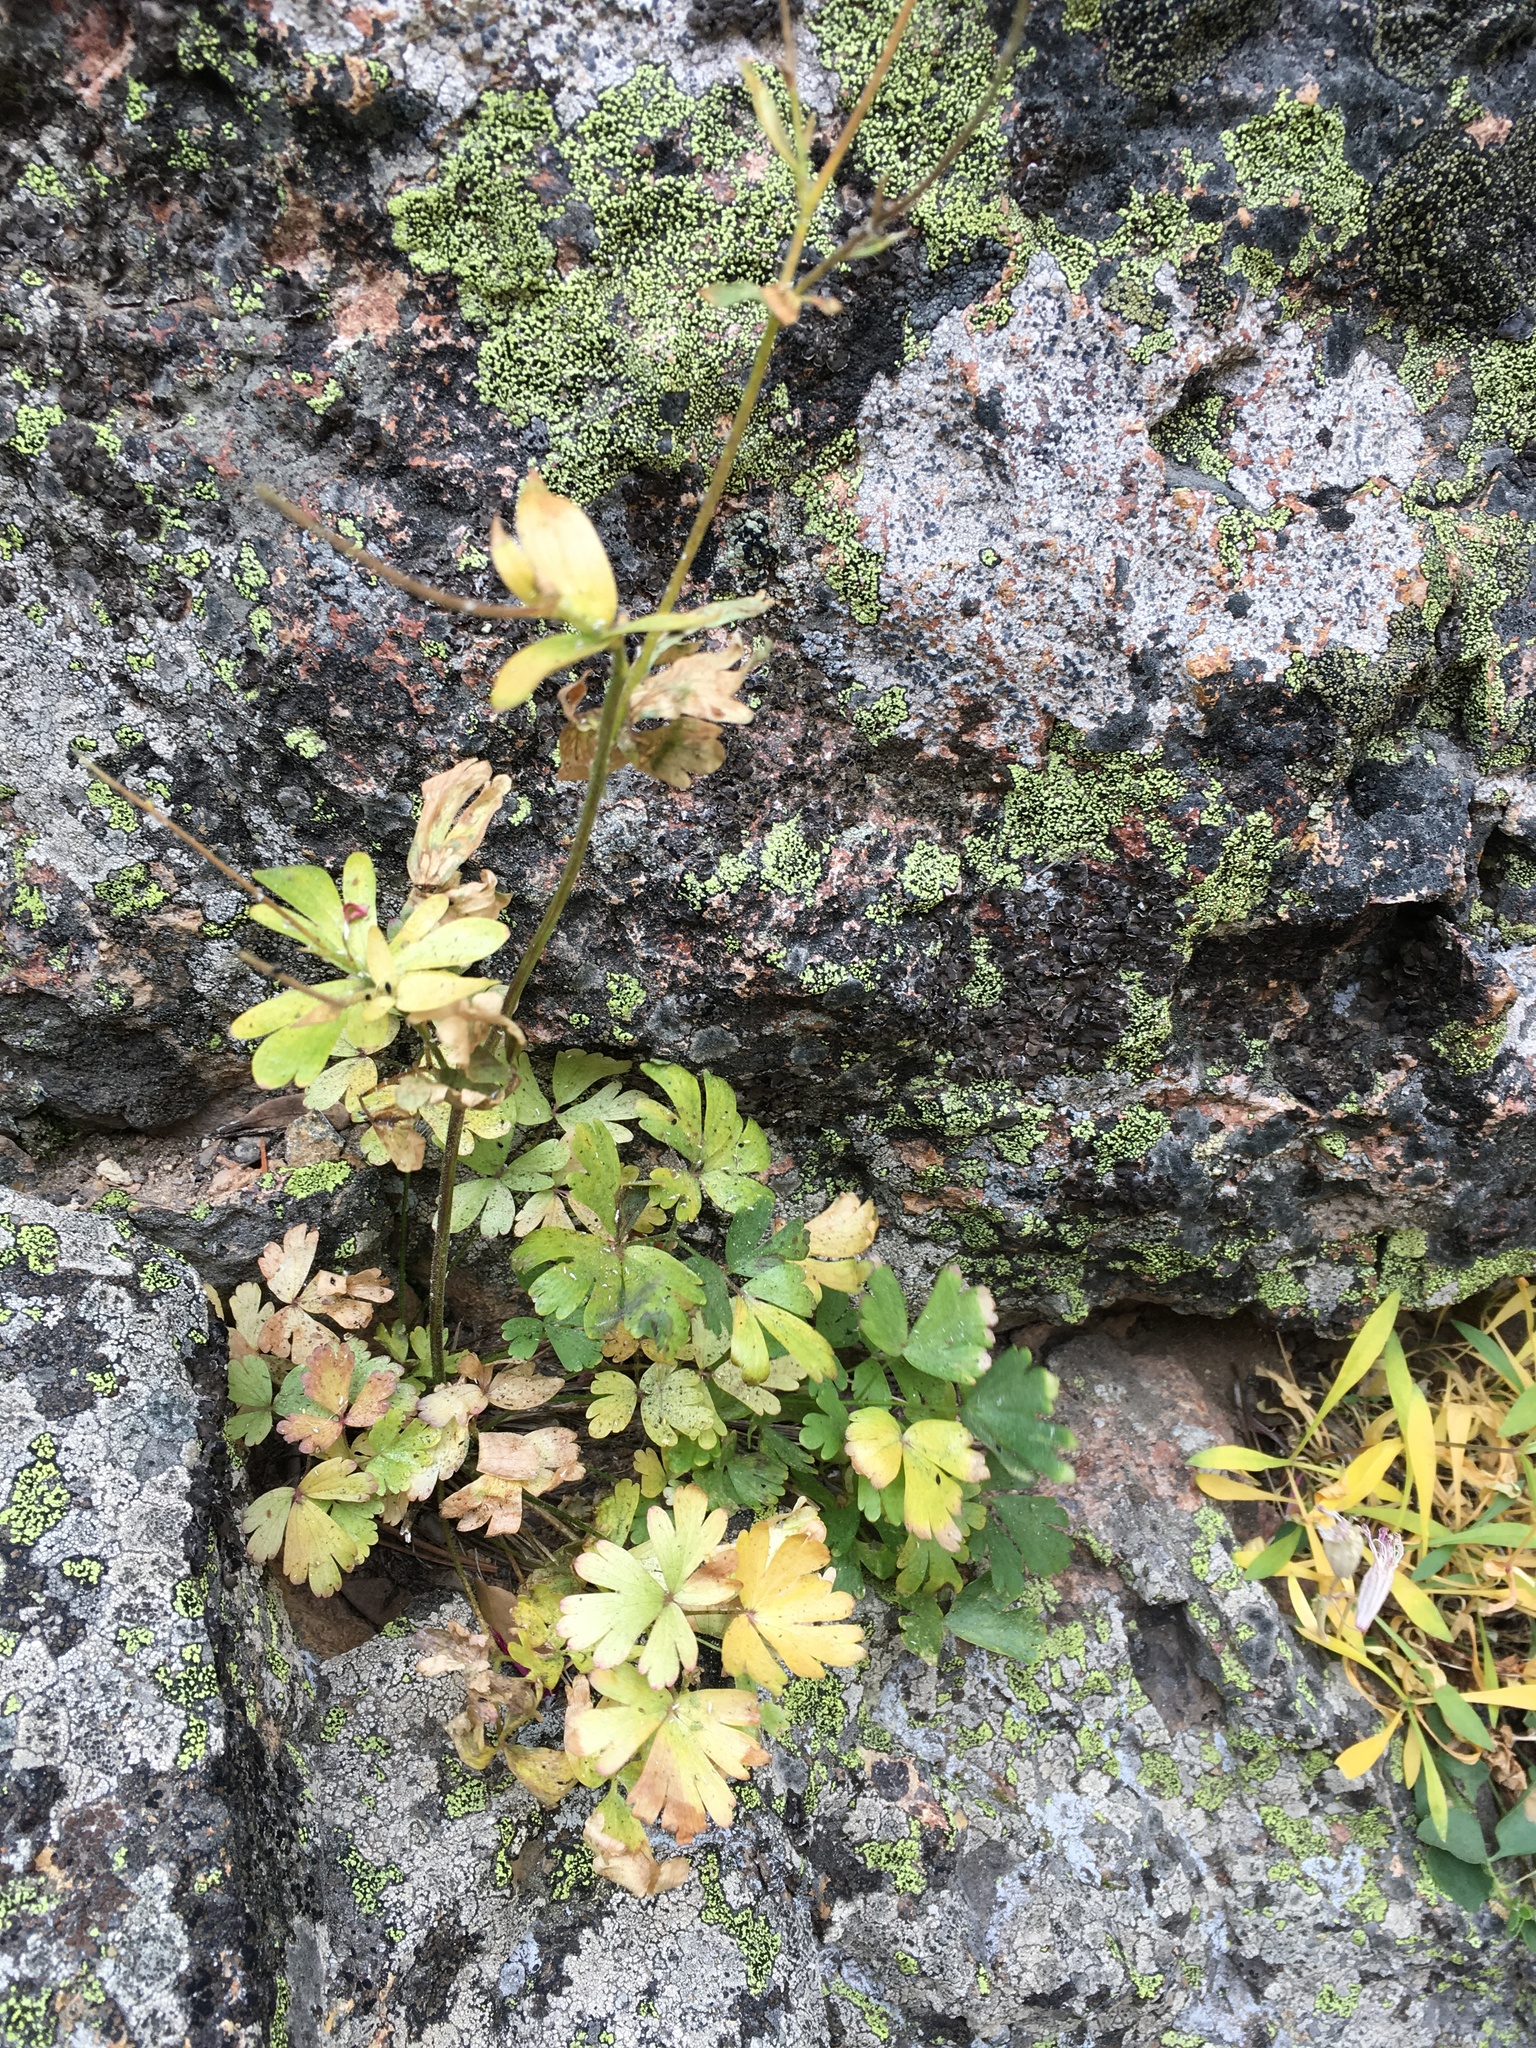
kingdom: Plantae
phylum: Tracheophyta
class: Magnoliopsida
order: Ranunculales
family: Ranunculaceae
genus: Aquilegia
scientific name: Aquilegia formosa
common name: Sitka columbine
